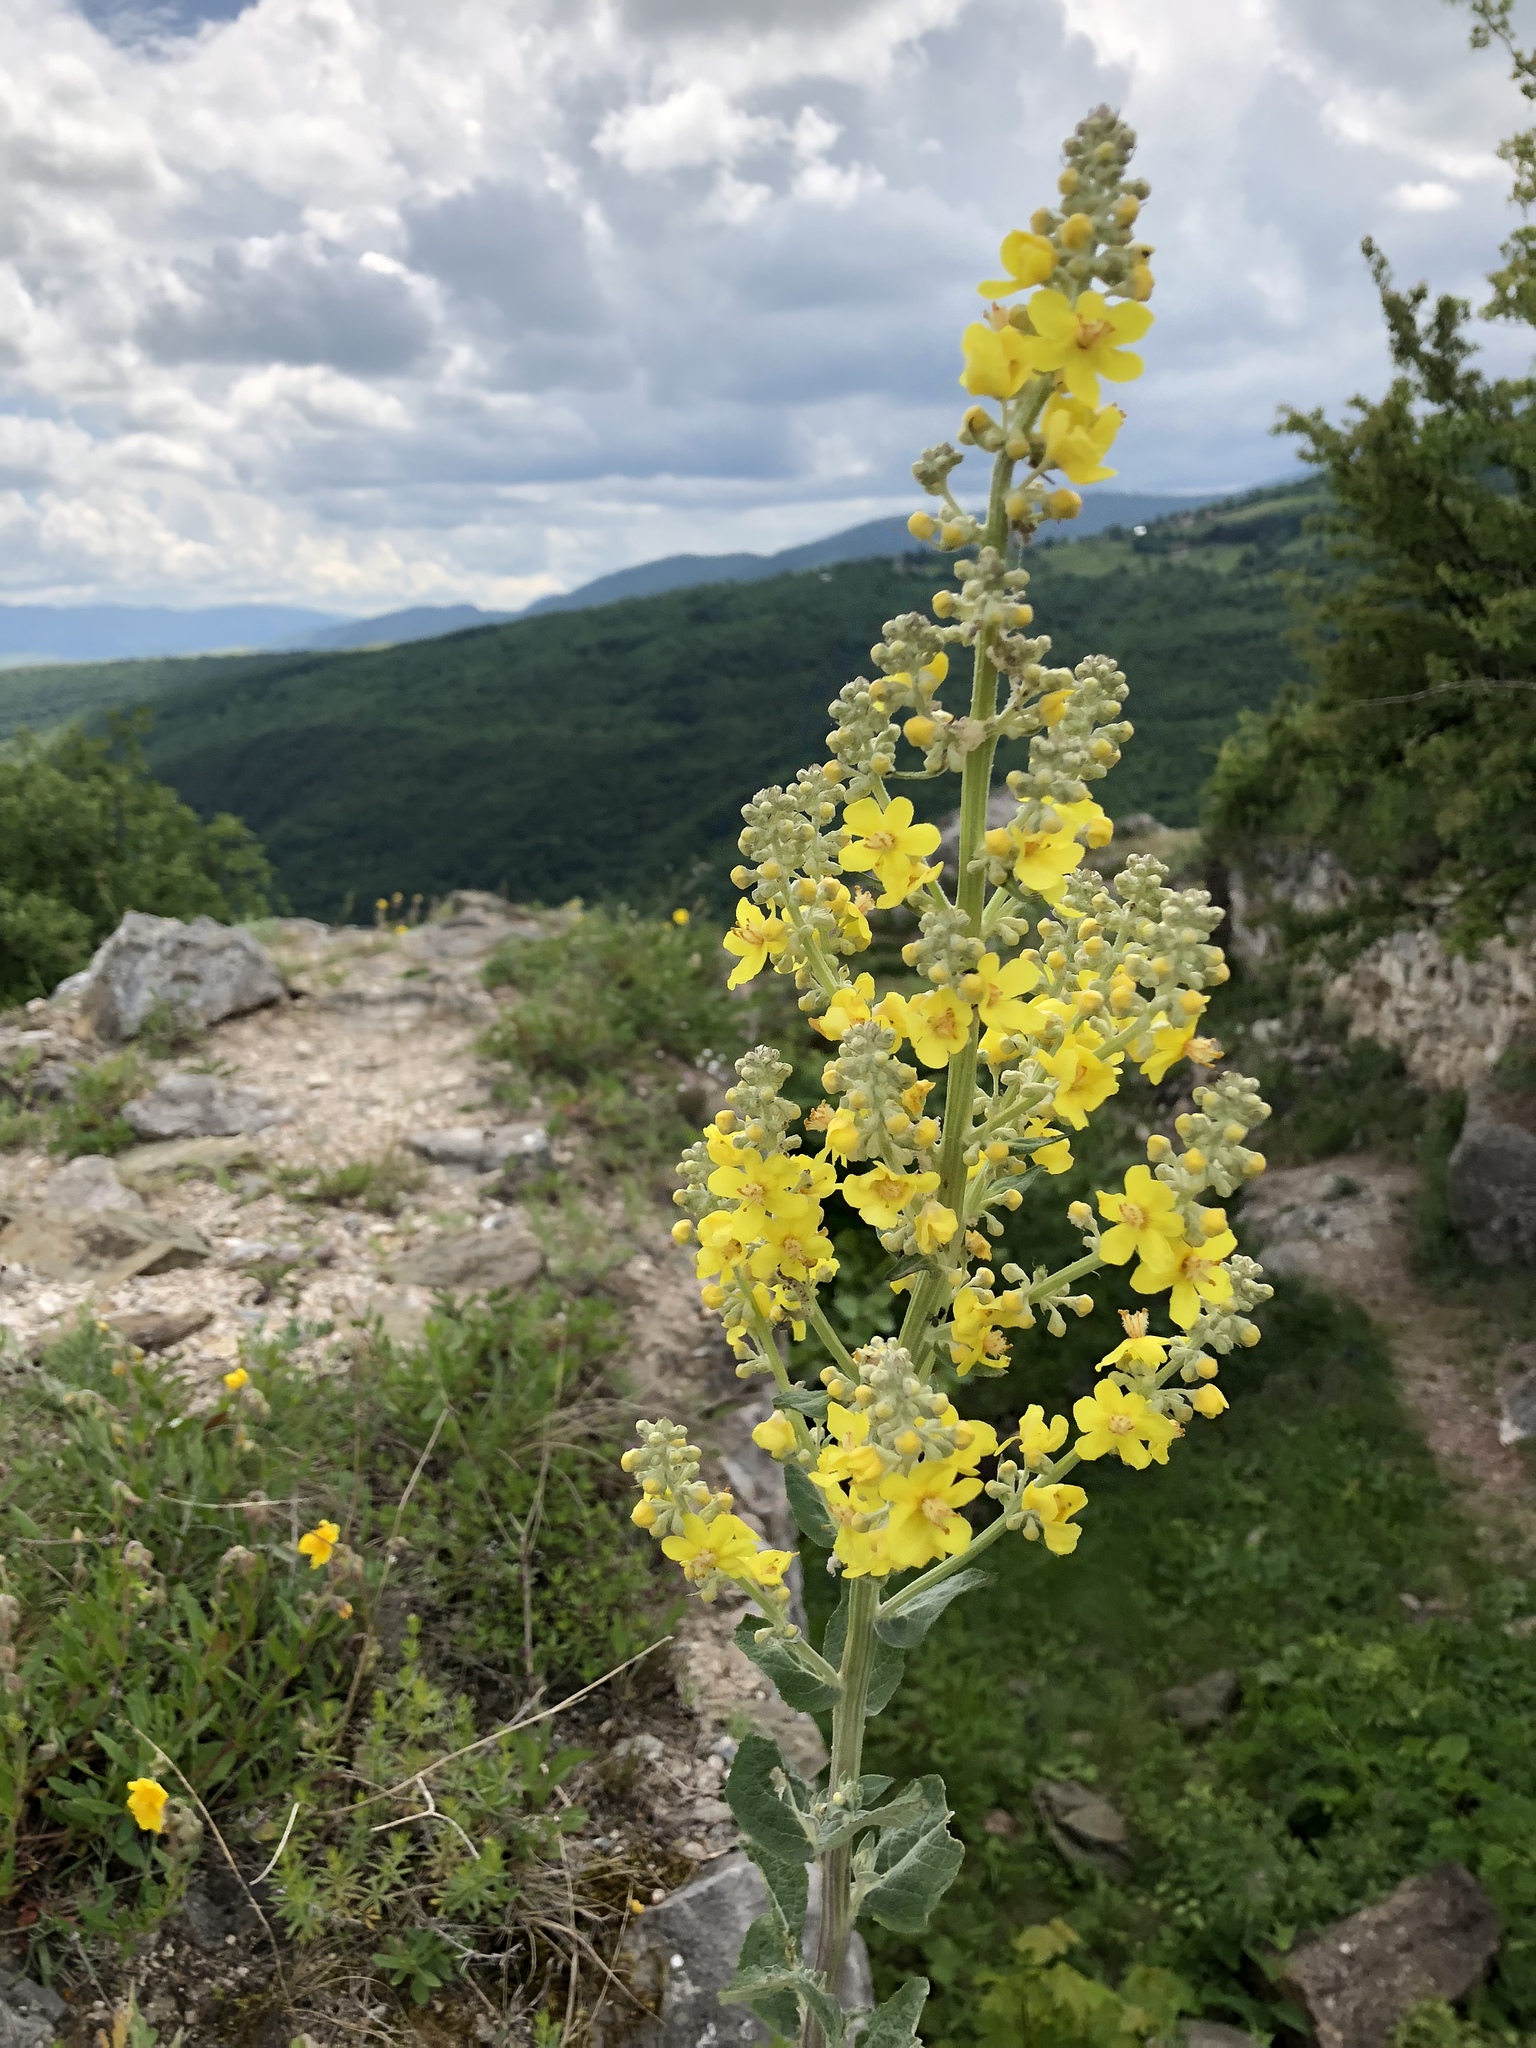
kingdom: Plantae
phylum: Tracheophyta
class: Magnoliopsida
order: Lamiales
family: Scrophulariaceae
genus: Verbascum
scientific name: Verbascum speciosum
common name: Hungarian mullein
